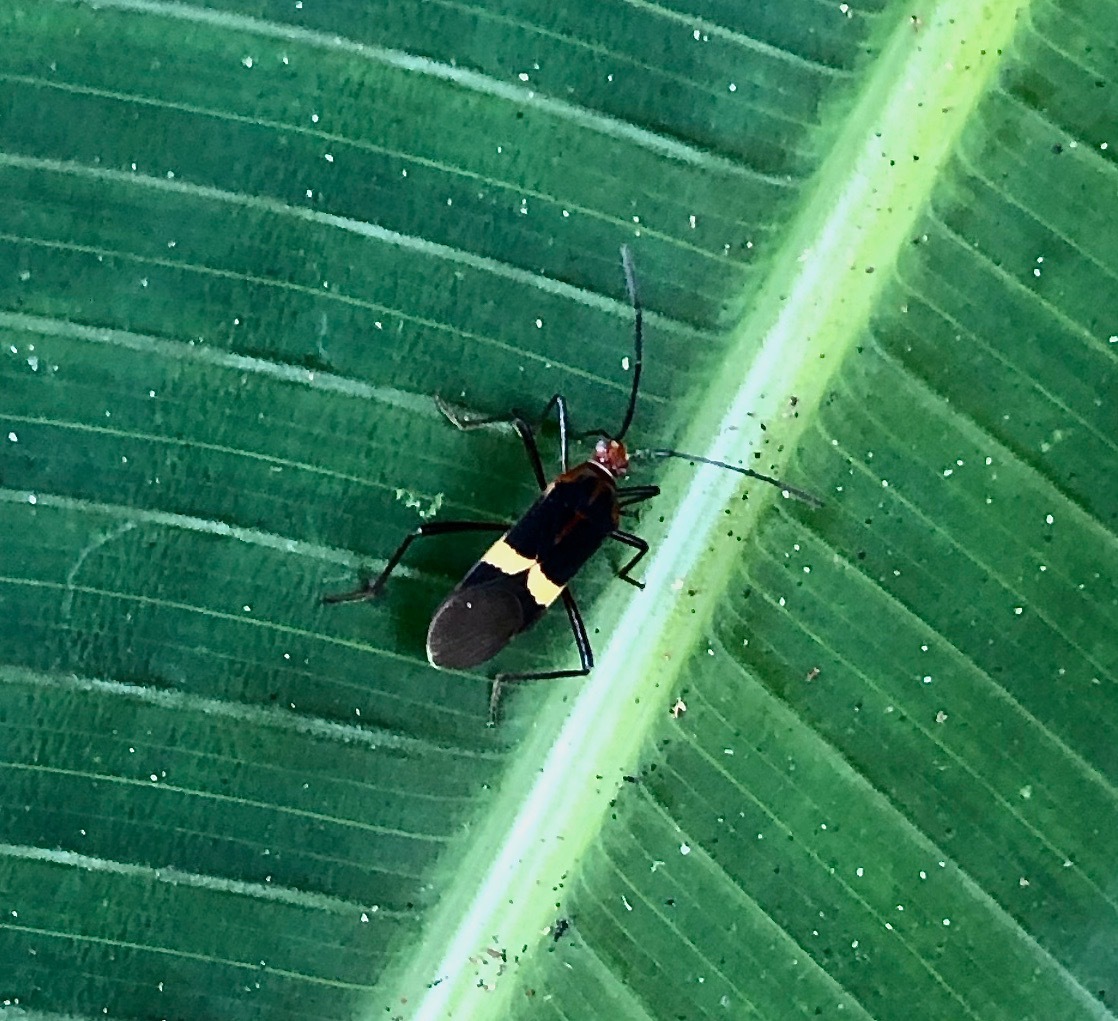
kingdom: Animalia
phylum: Arthropoda
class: Insecta
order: Hemiptera
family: Coreidae
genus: Hypselonotus
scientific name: Hypselonotus interruptus
